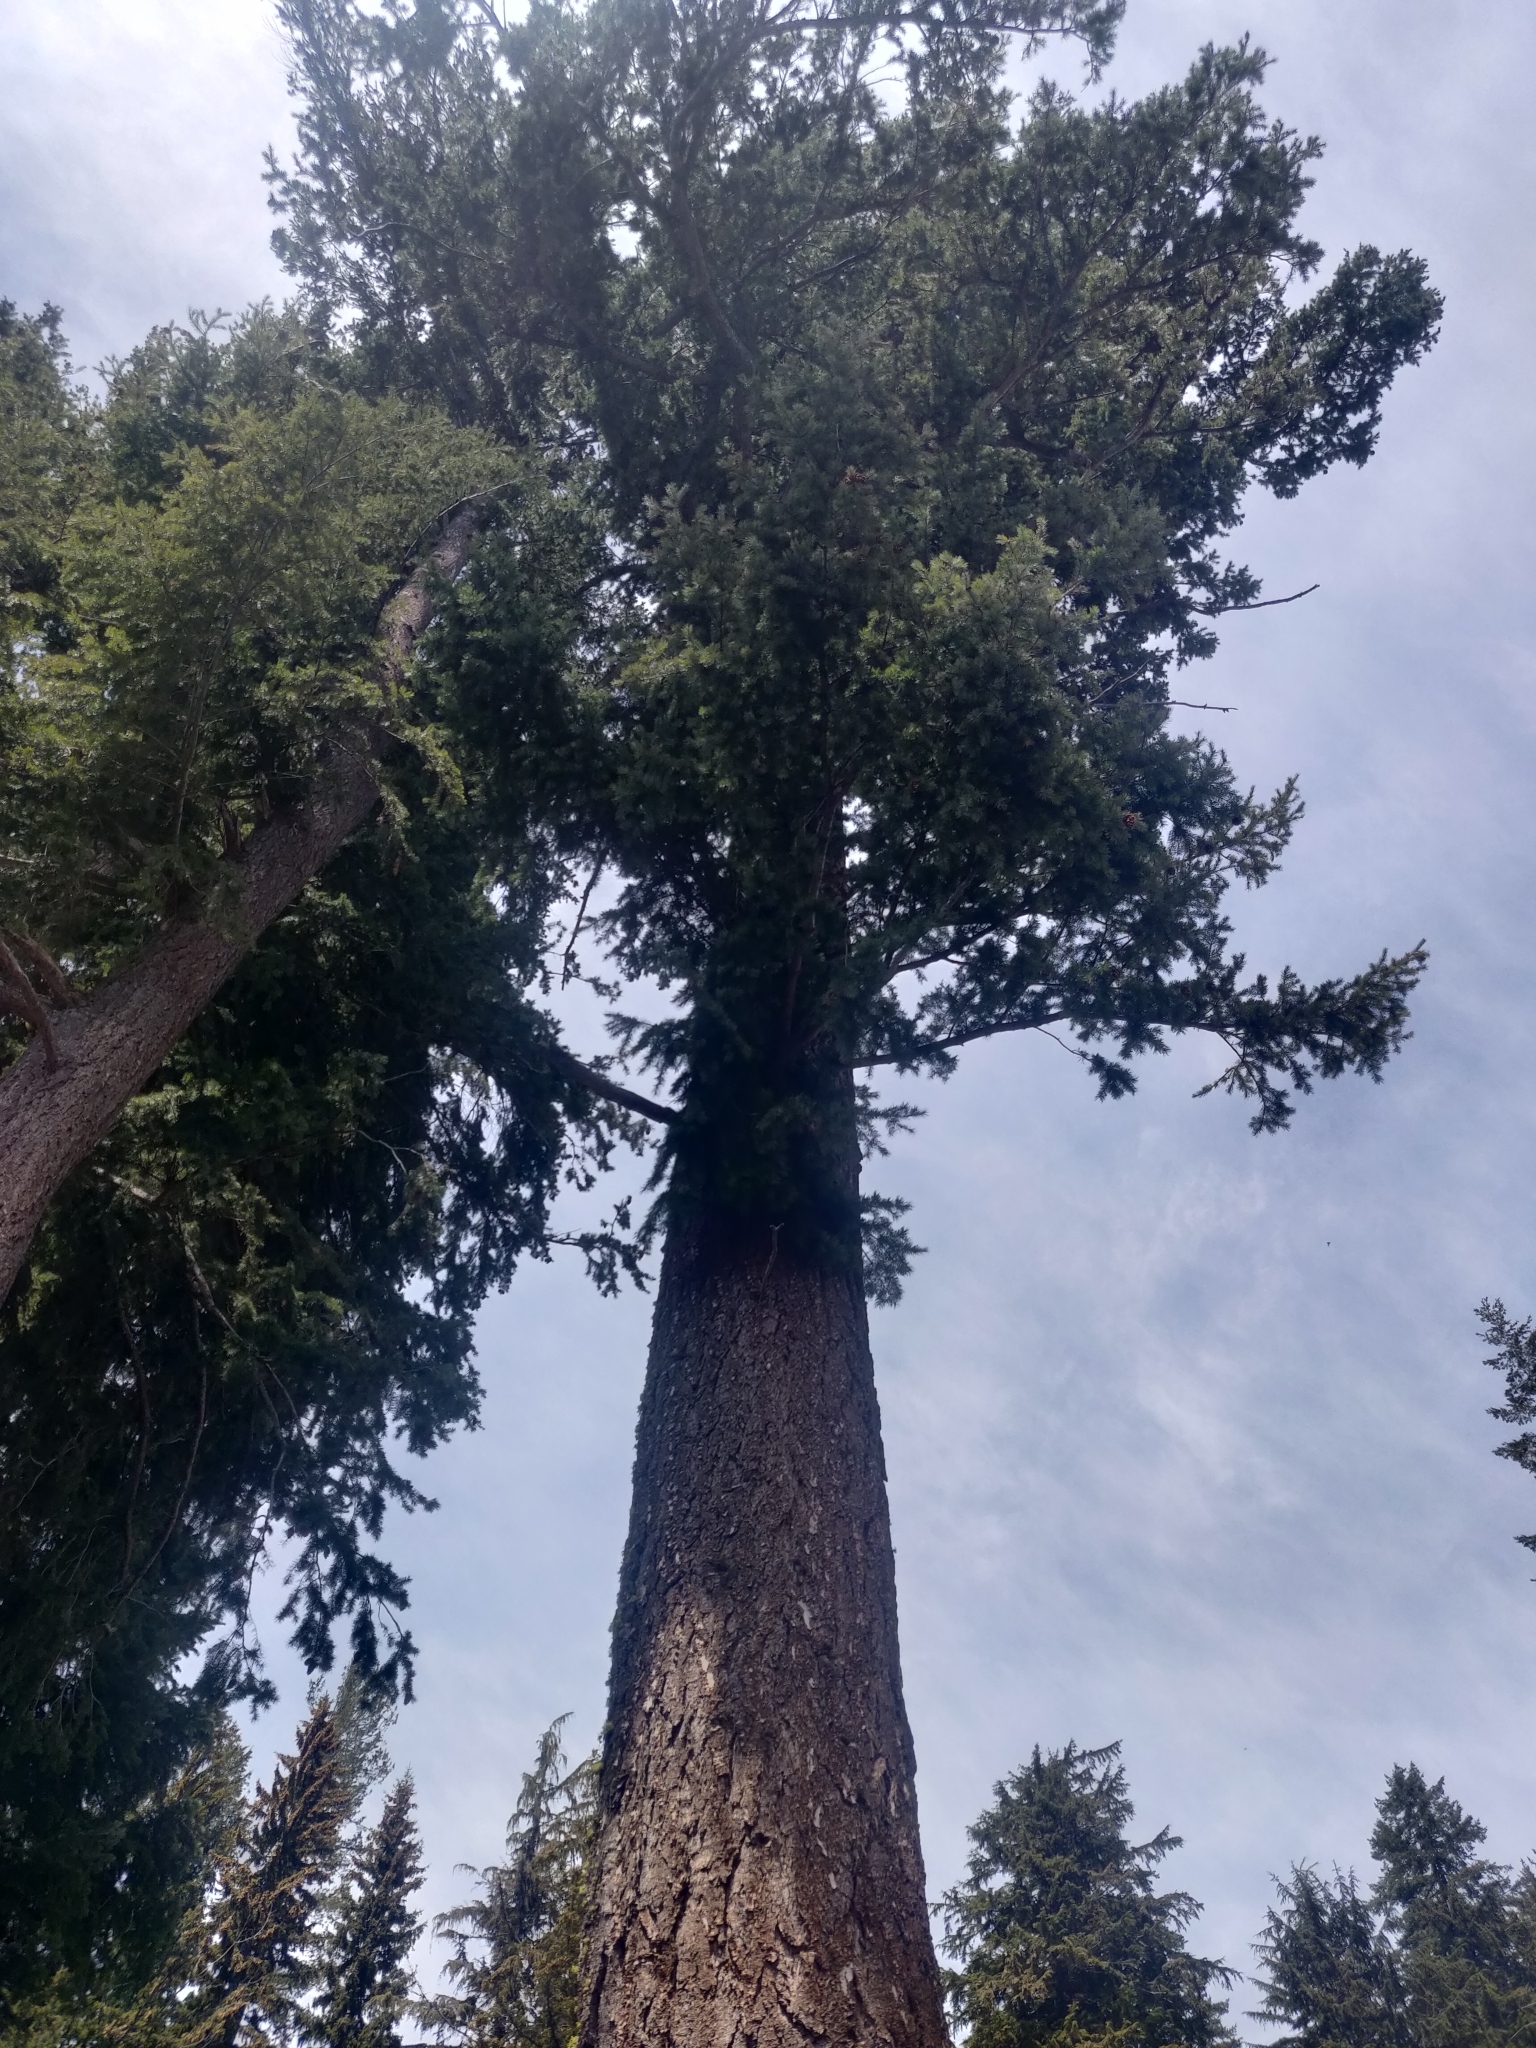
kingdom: Plantae
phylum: Tracheophyta
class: Pinopsida
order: Pinales
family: Pinaceae
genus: Pseudotsuga
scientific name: Pseudotsuga menziesii
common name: Douglas fir
